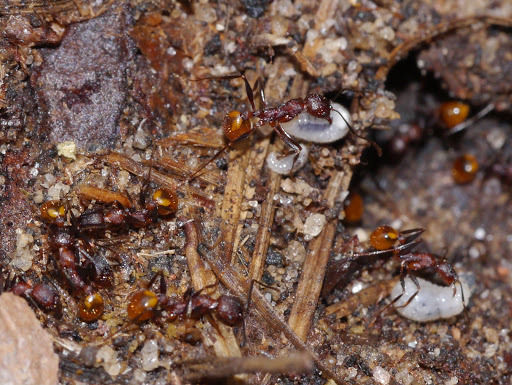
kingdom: Animalia
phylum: Arthropoda
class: Insecta
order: Hymenoptera
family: Formicidae
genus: Aphaenogaster
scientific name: Aphaenogaster lamellidens
